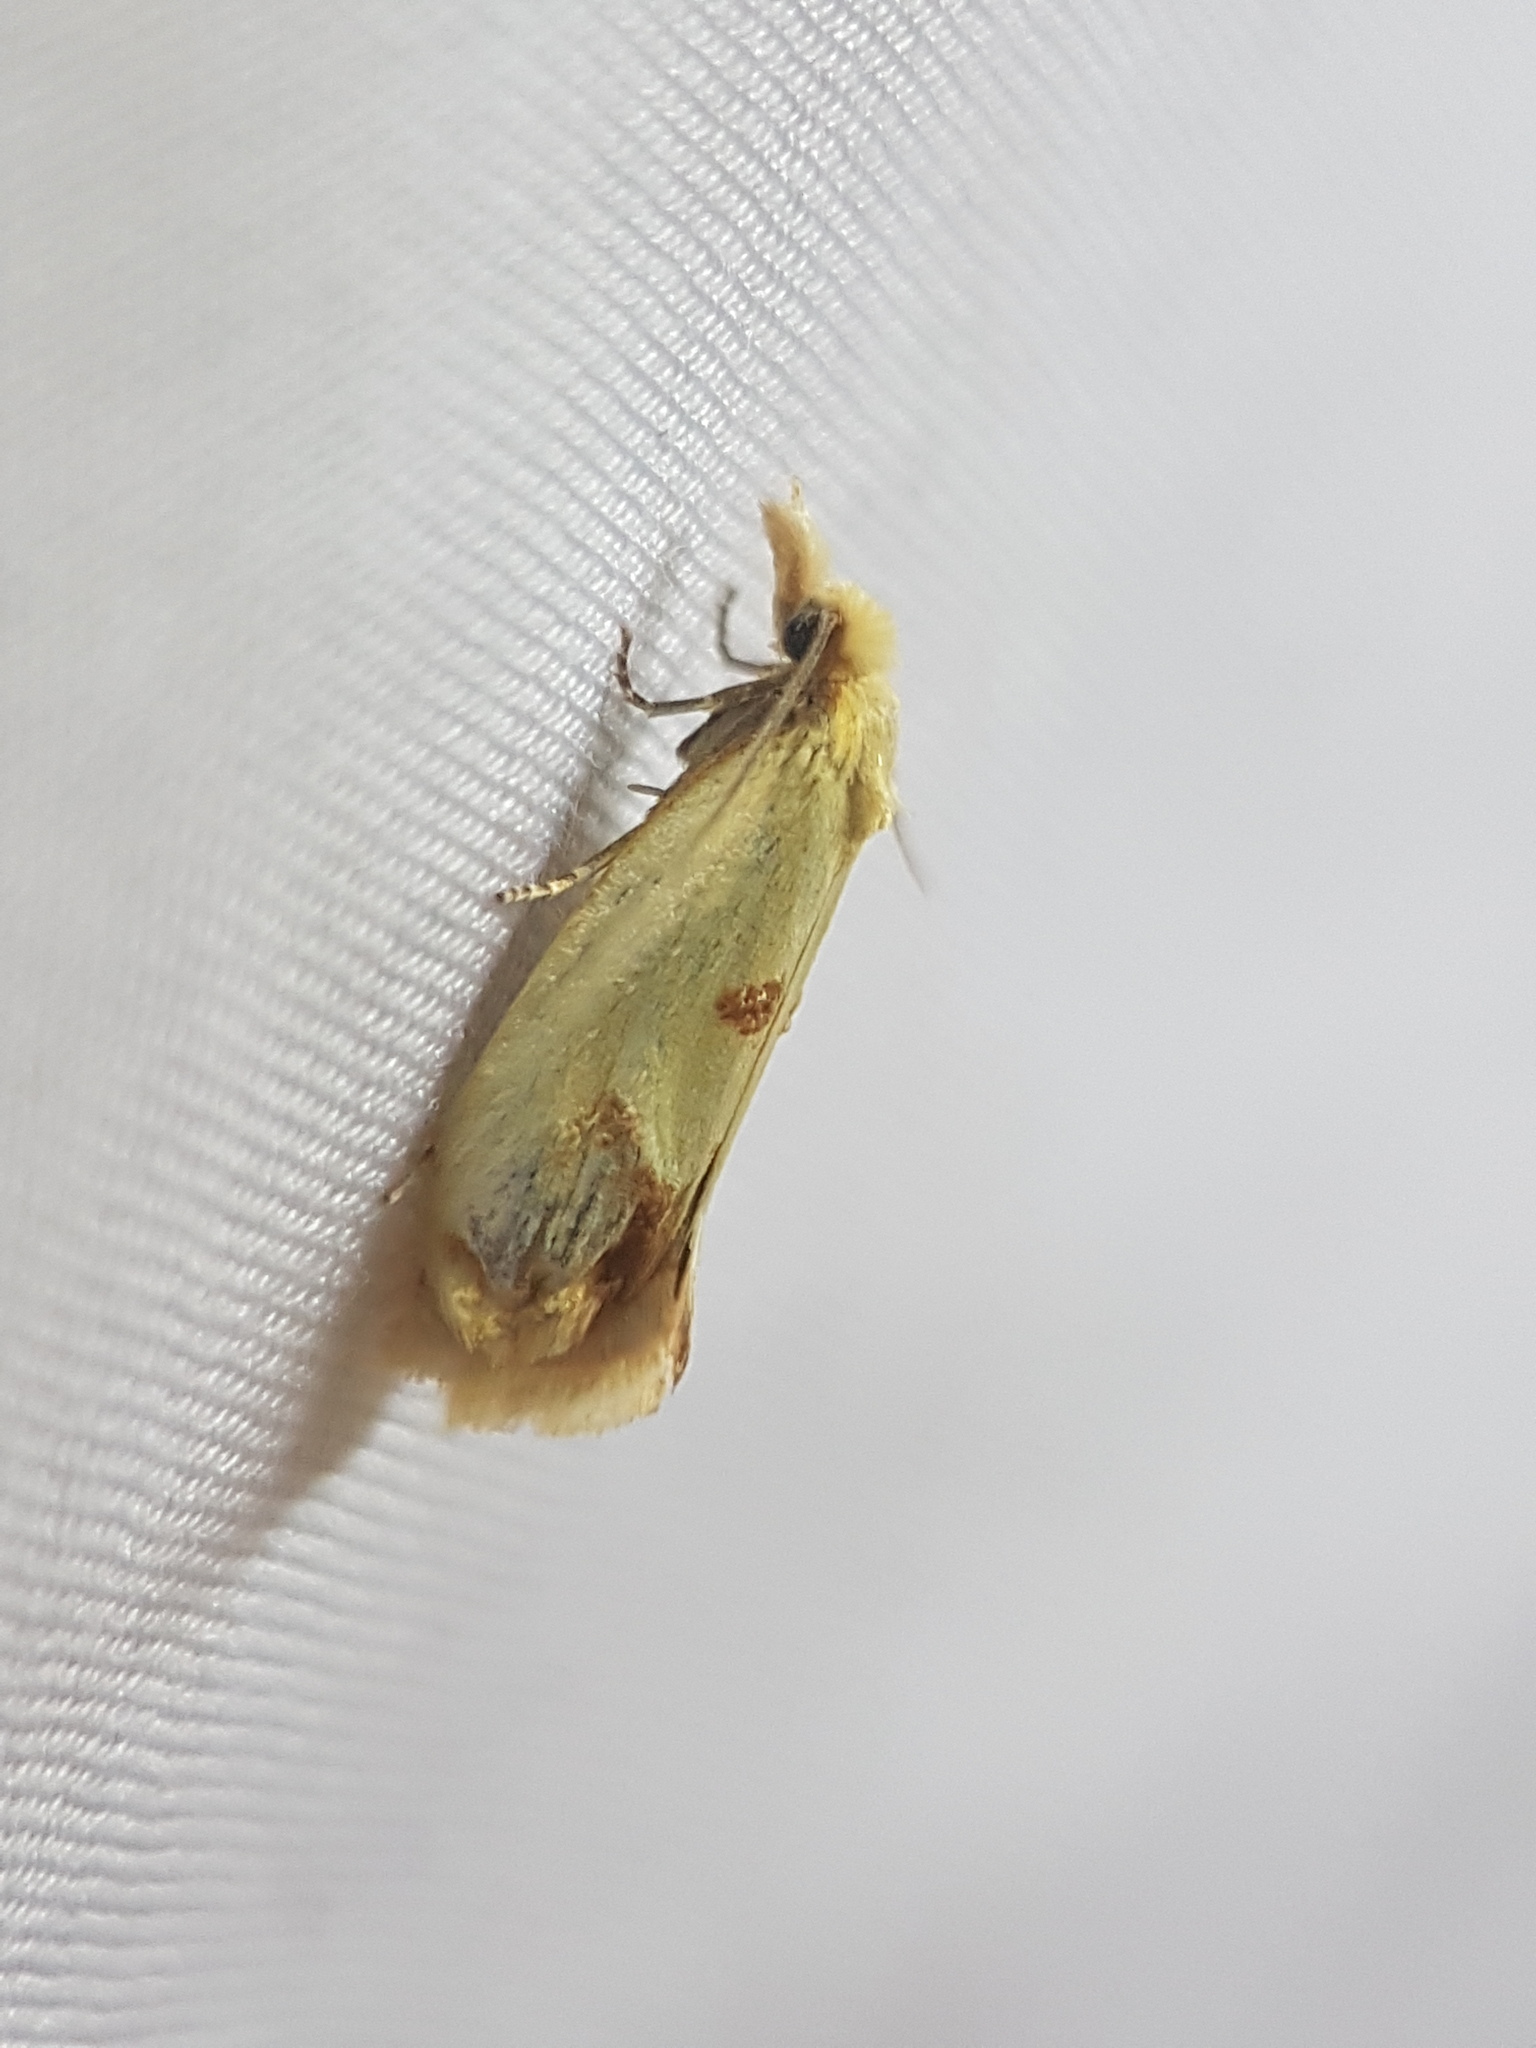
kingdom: Animalia
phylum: Arthropoda
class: Insecta
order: Lepidoptera
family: Tortricidae
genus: Agapeta
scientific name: Agapeta hamana
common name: Common yellow conch
